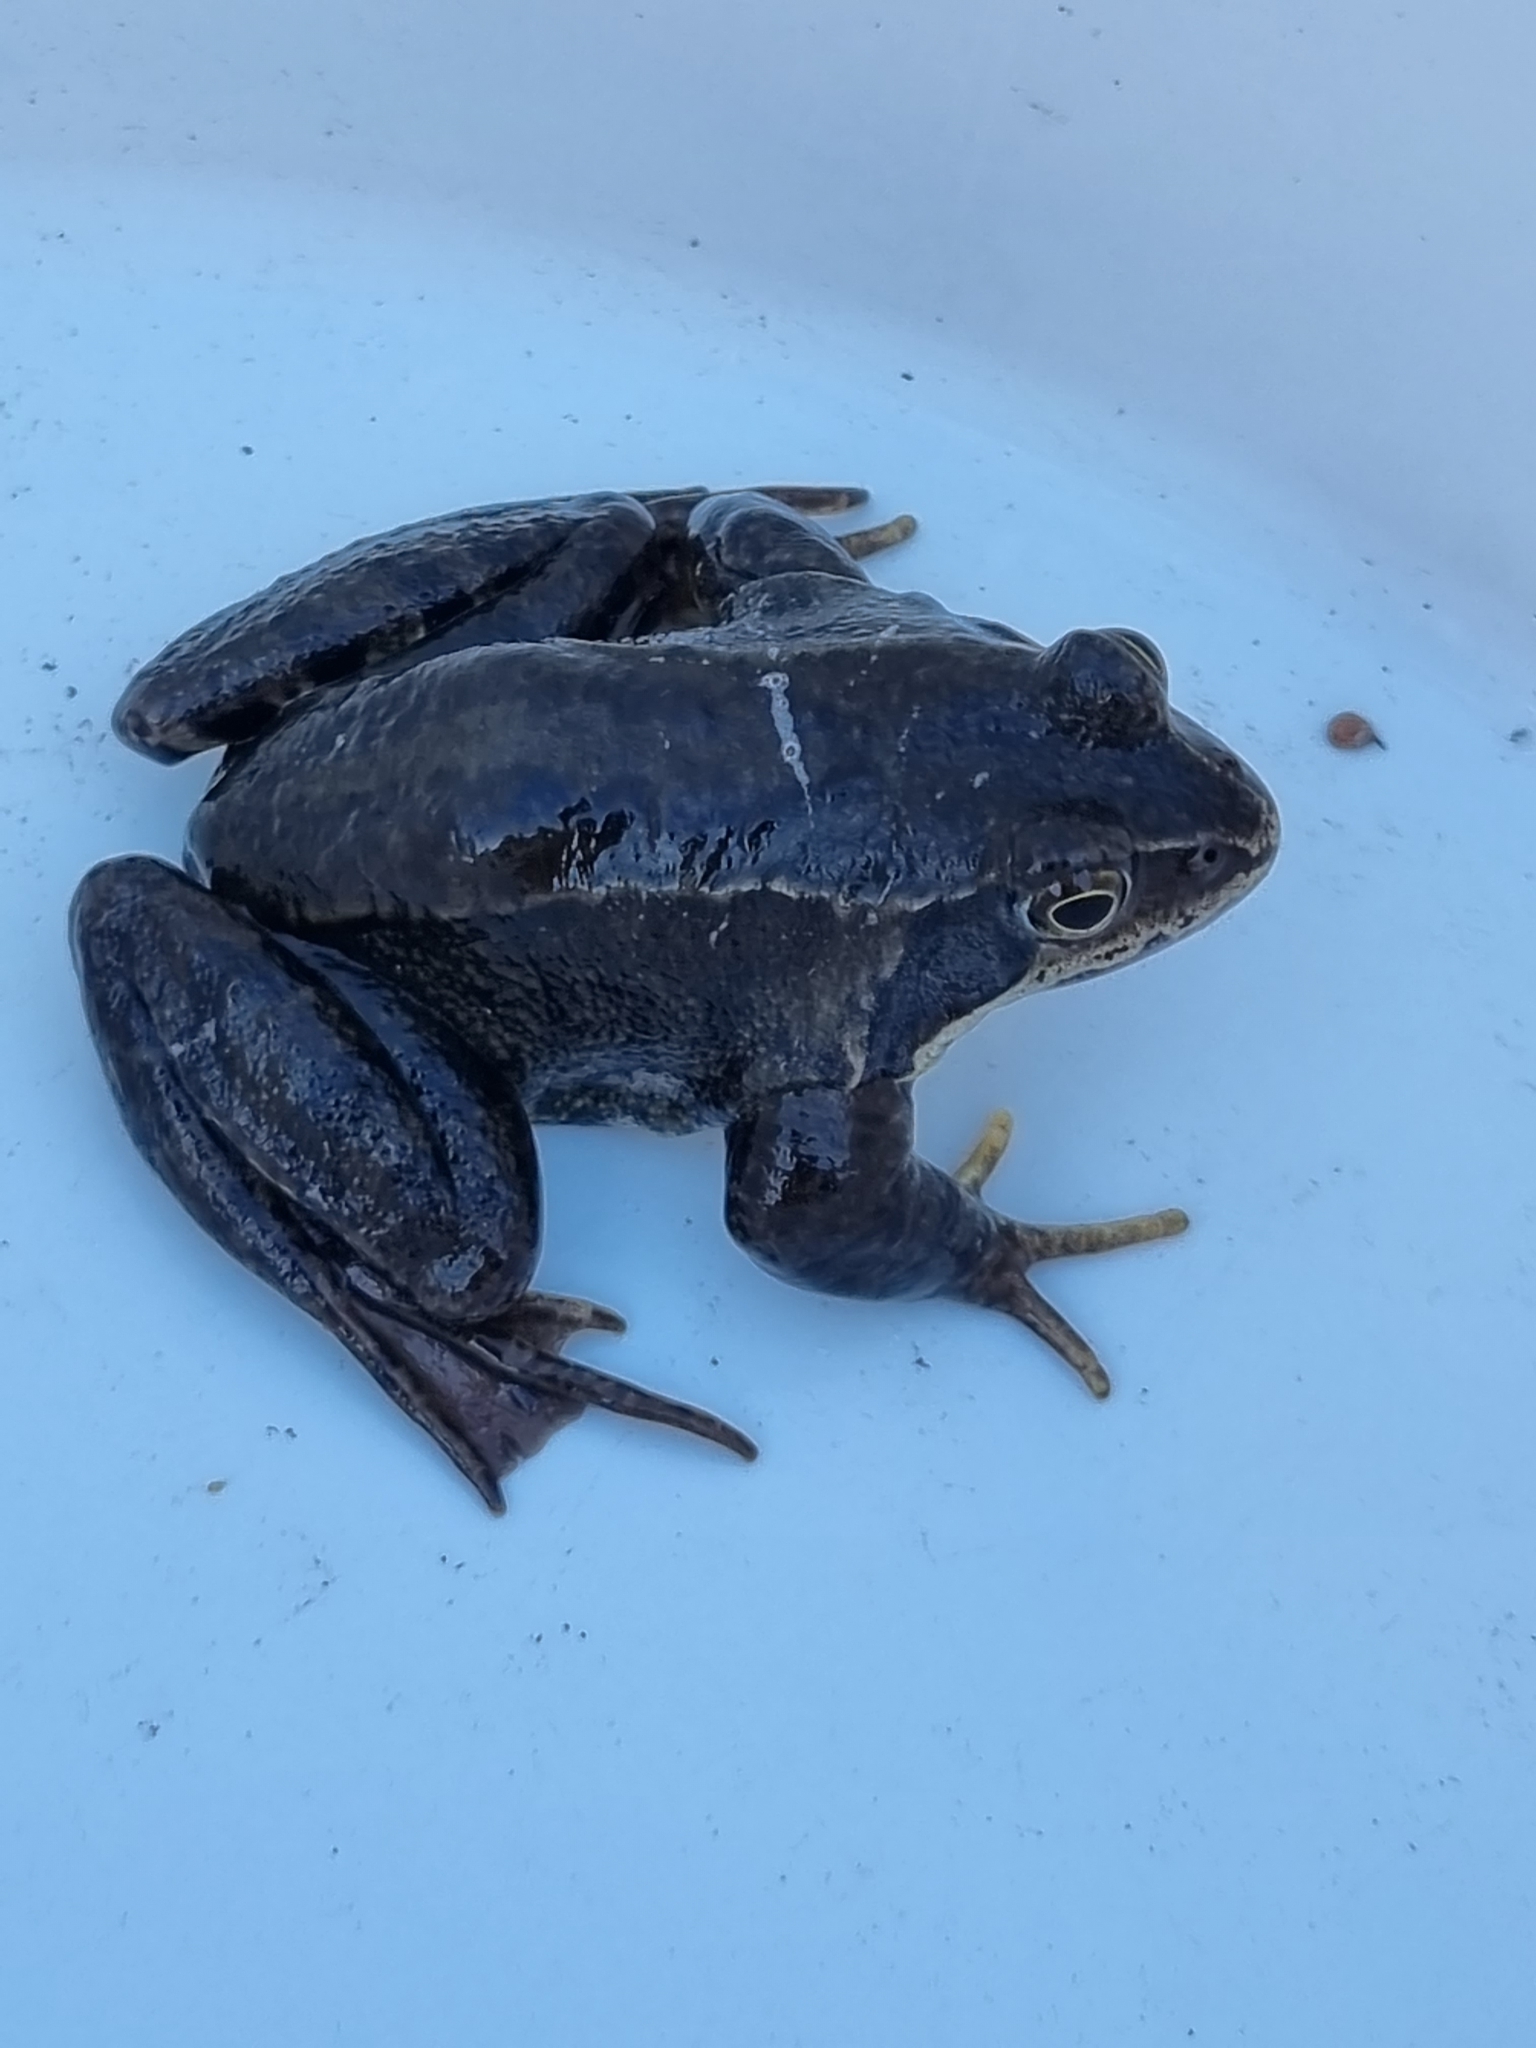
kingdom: Animalia
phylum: Chordata
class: Amphibia
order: Anura
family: Ranidae
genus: Rana
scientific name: Rana temporaria
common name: Common frog
